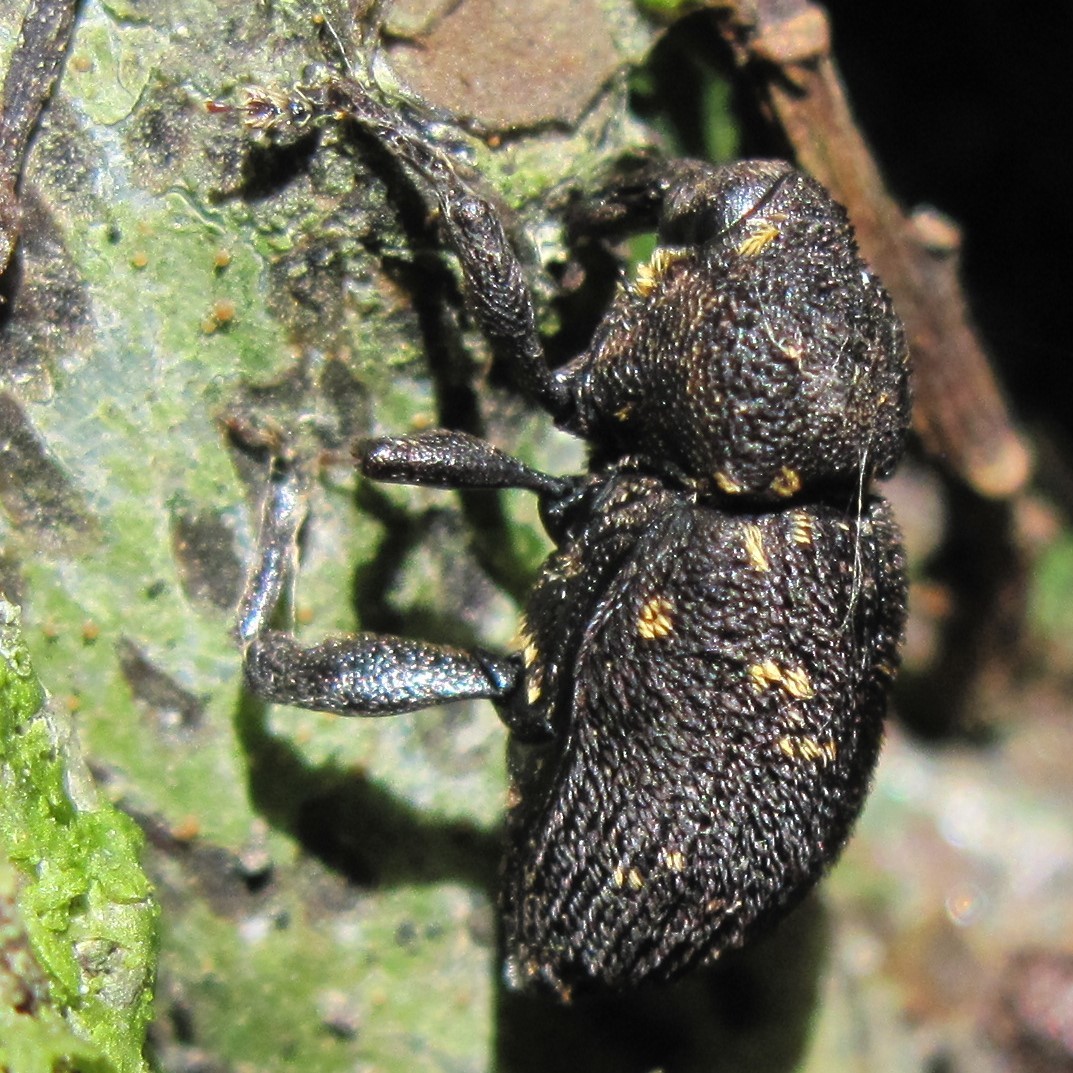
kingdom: Animalia
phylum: Arthropoda
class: Insecta
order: Coleoptera
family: Curculionidae
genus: Oreda
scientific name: Oreda notata
